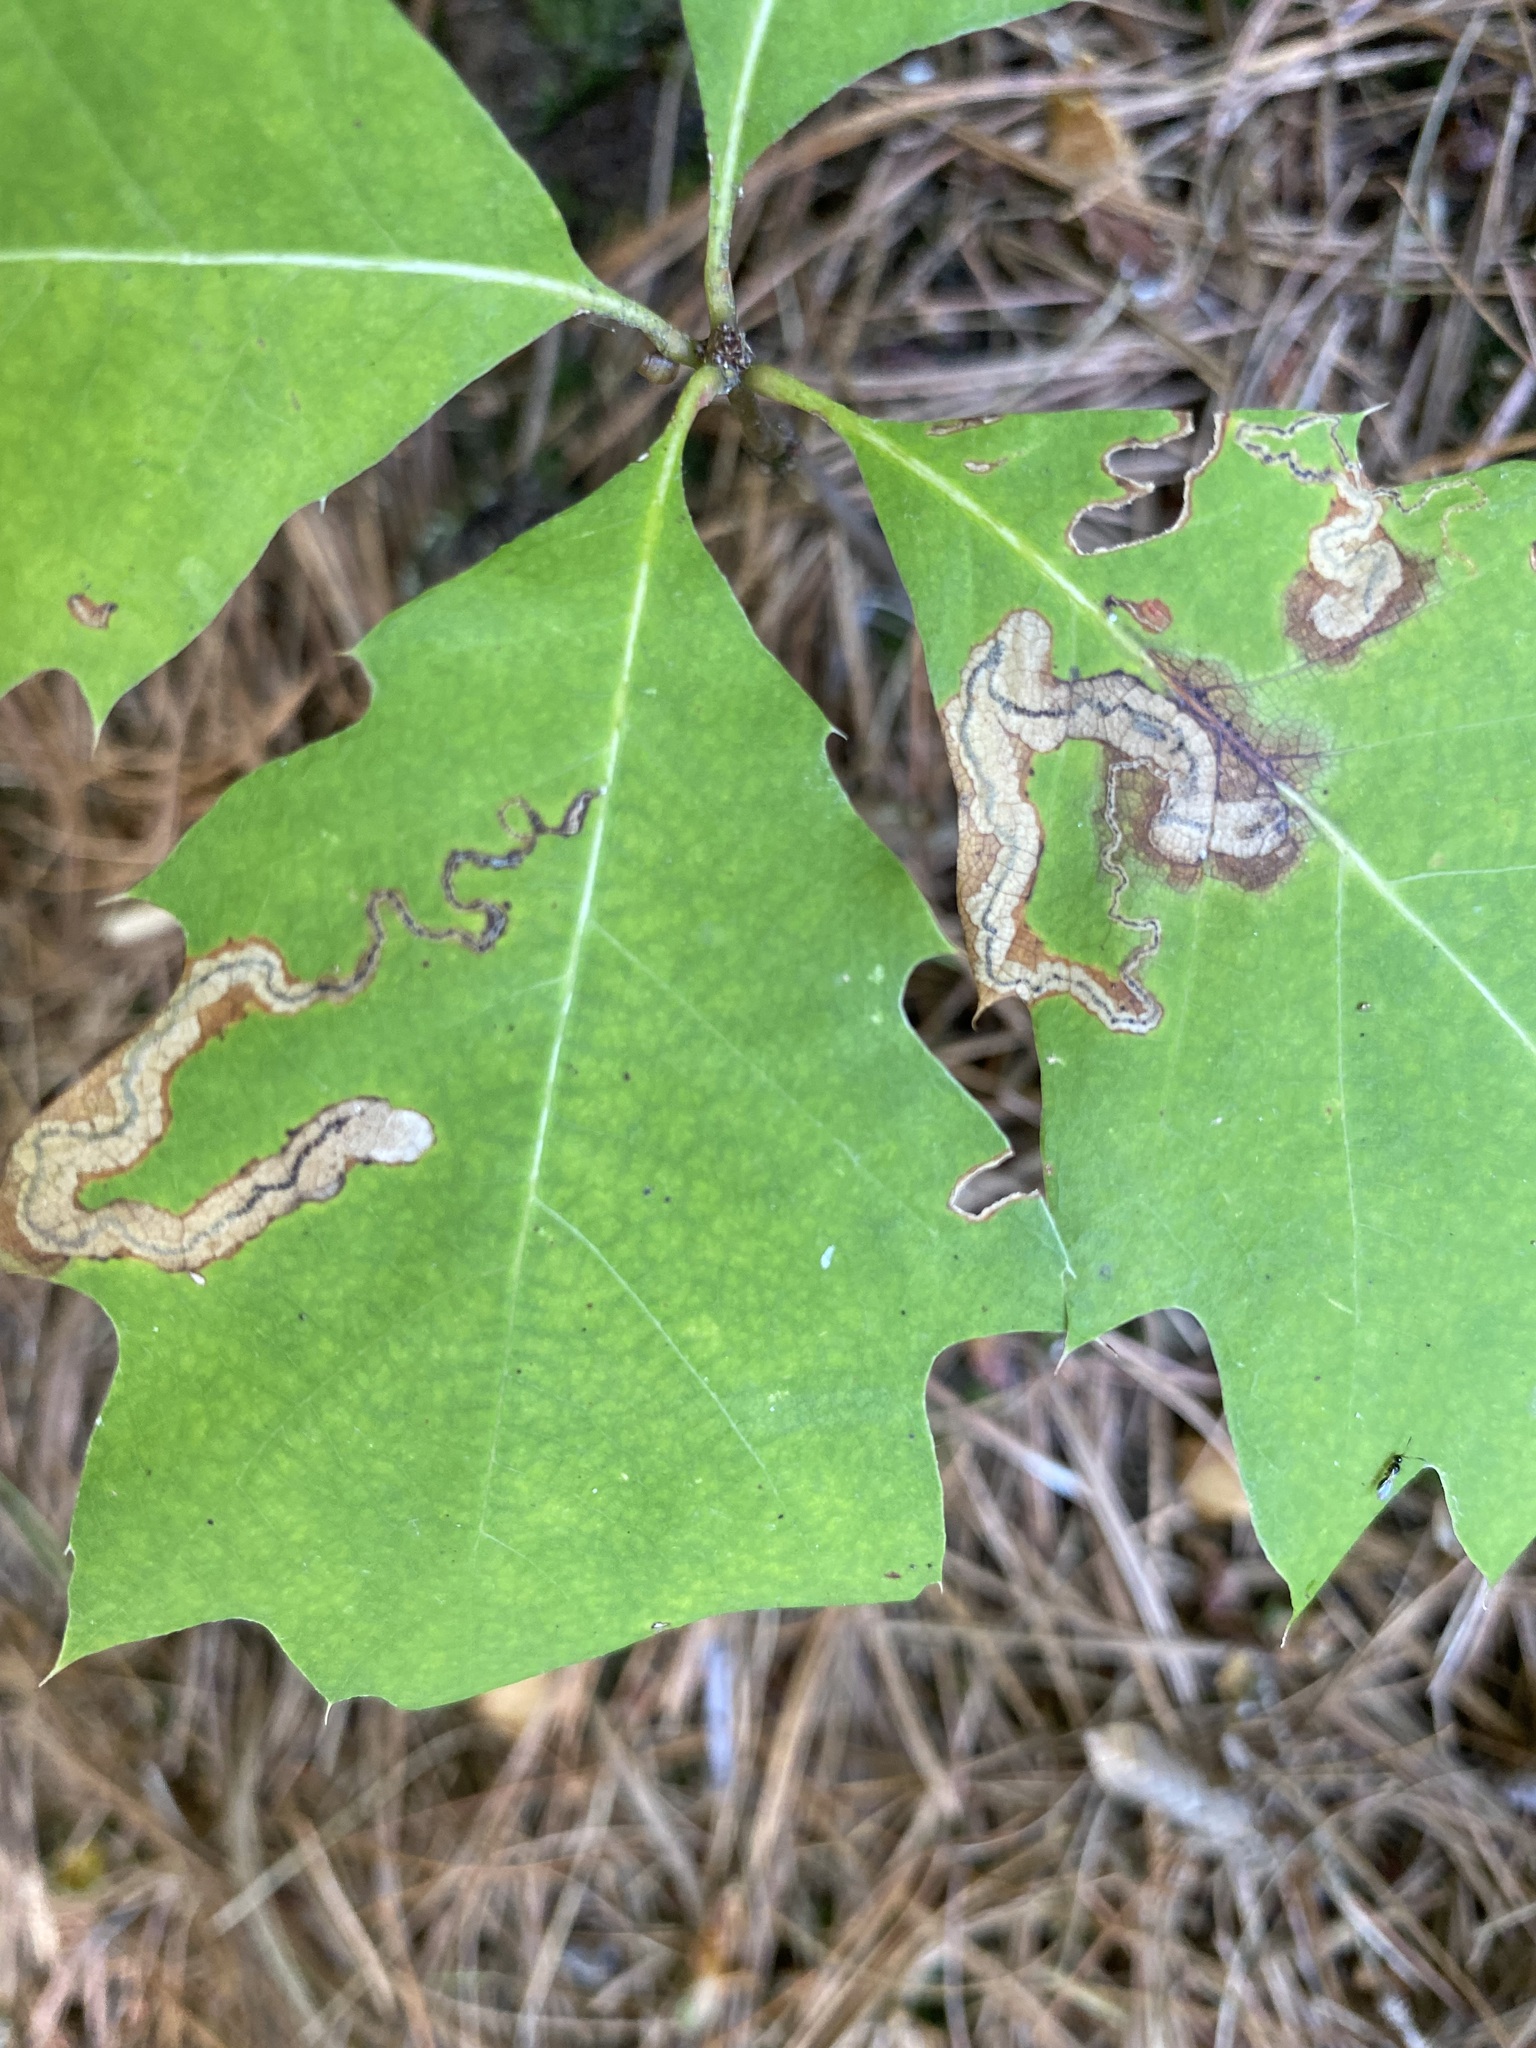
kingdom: Animalia
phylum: Arthropoda
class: Insecta
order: Lepidoptera
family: Nepticulidae
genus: Stigmella
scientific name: Stigmella quercipulchella
